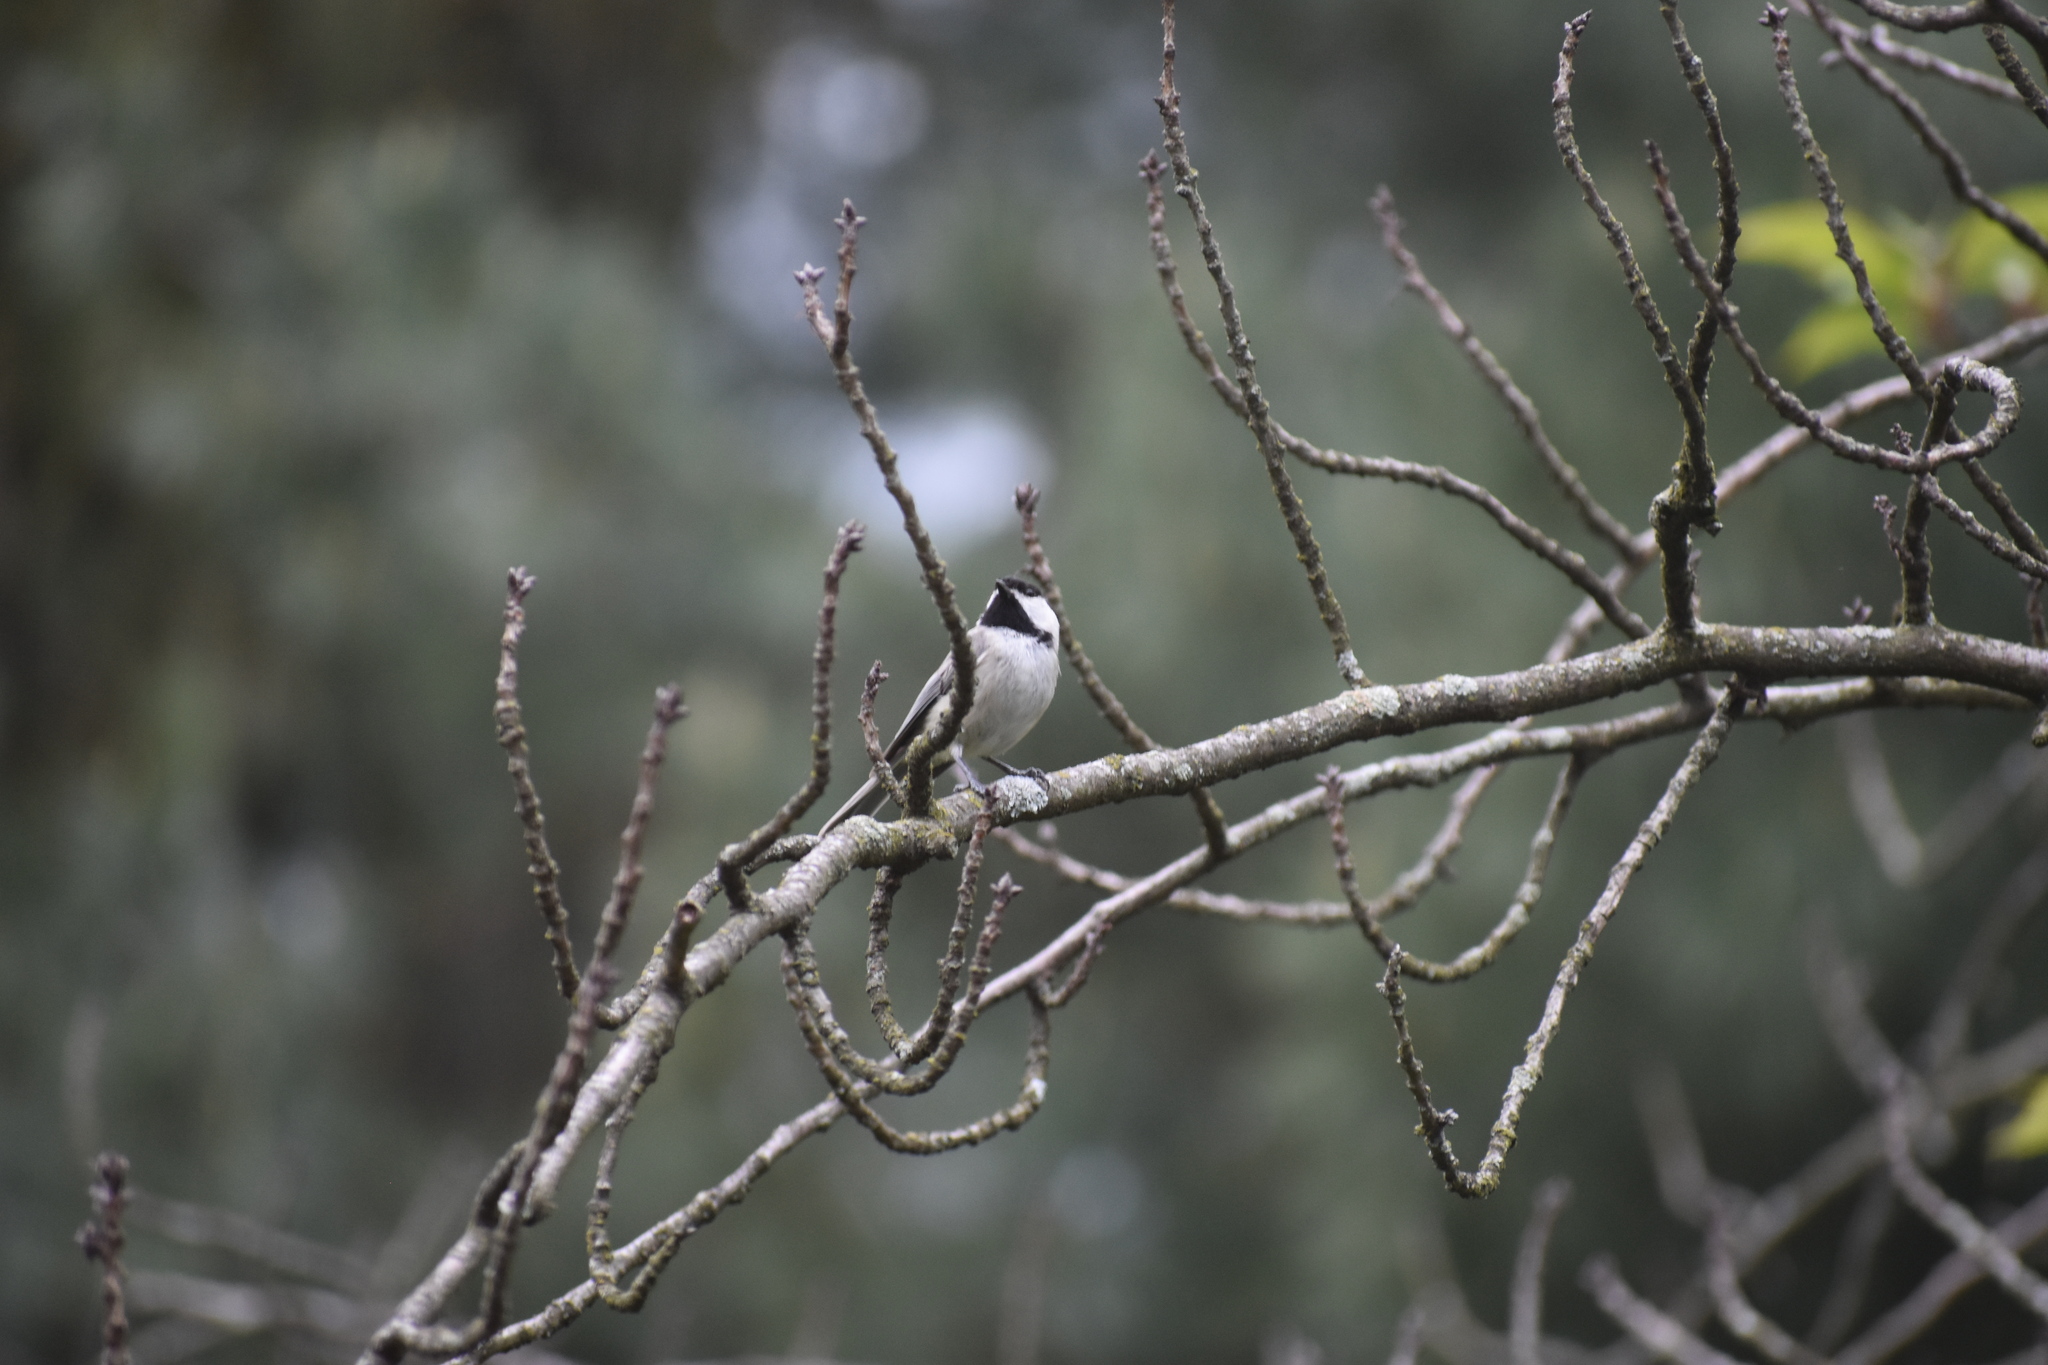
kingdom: Animalia
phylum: Chordata
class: Aves
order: Passeriformes
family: Paridae
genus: Poecile
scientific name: Poecile carolinensis
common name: Carolina chickadee
